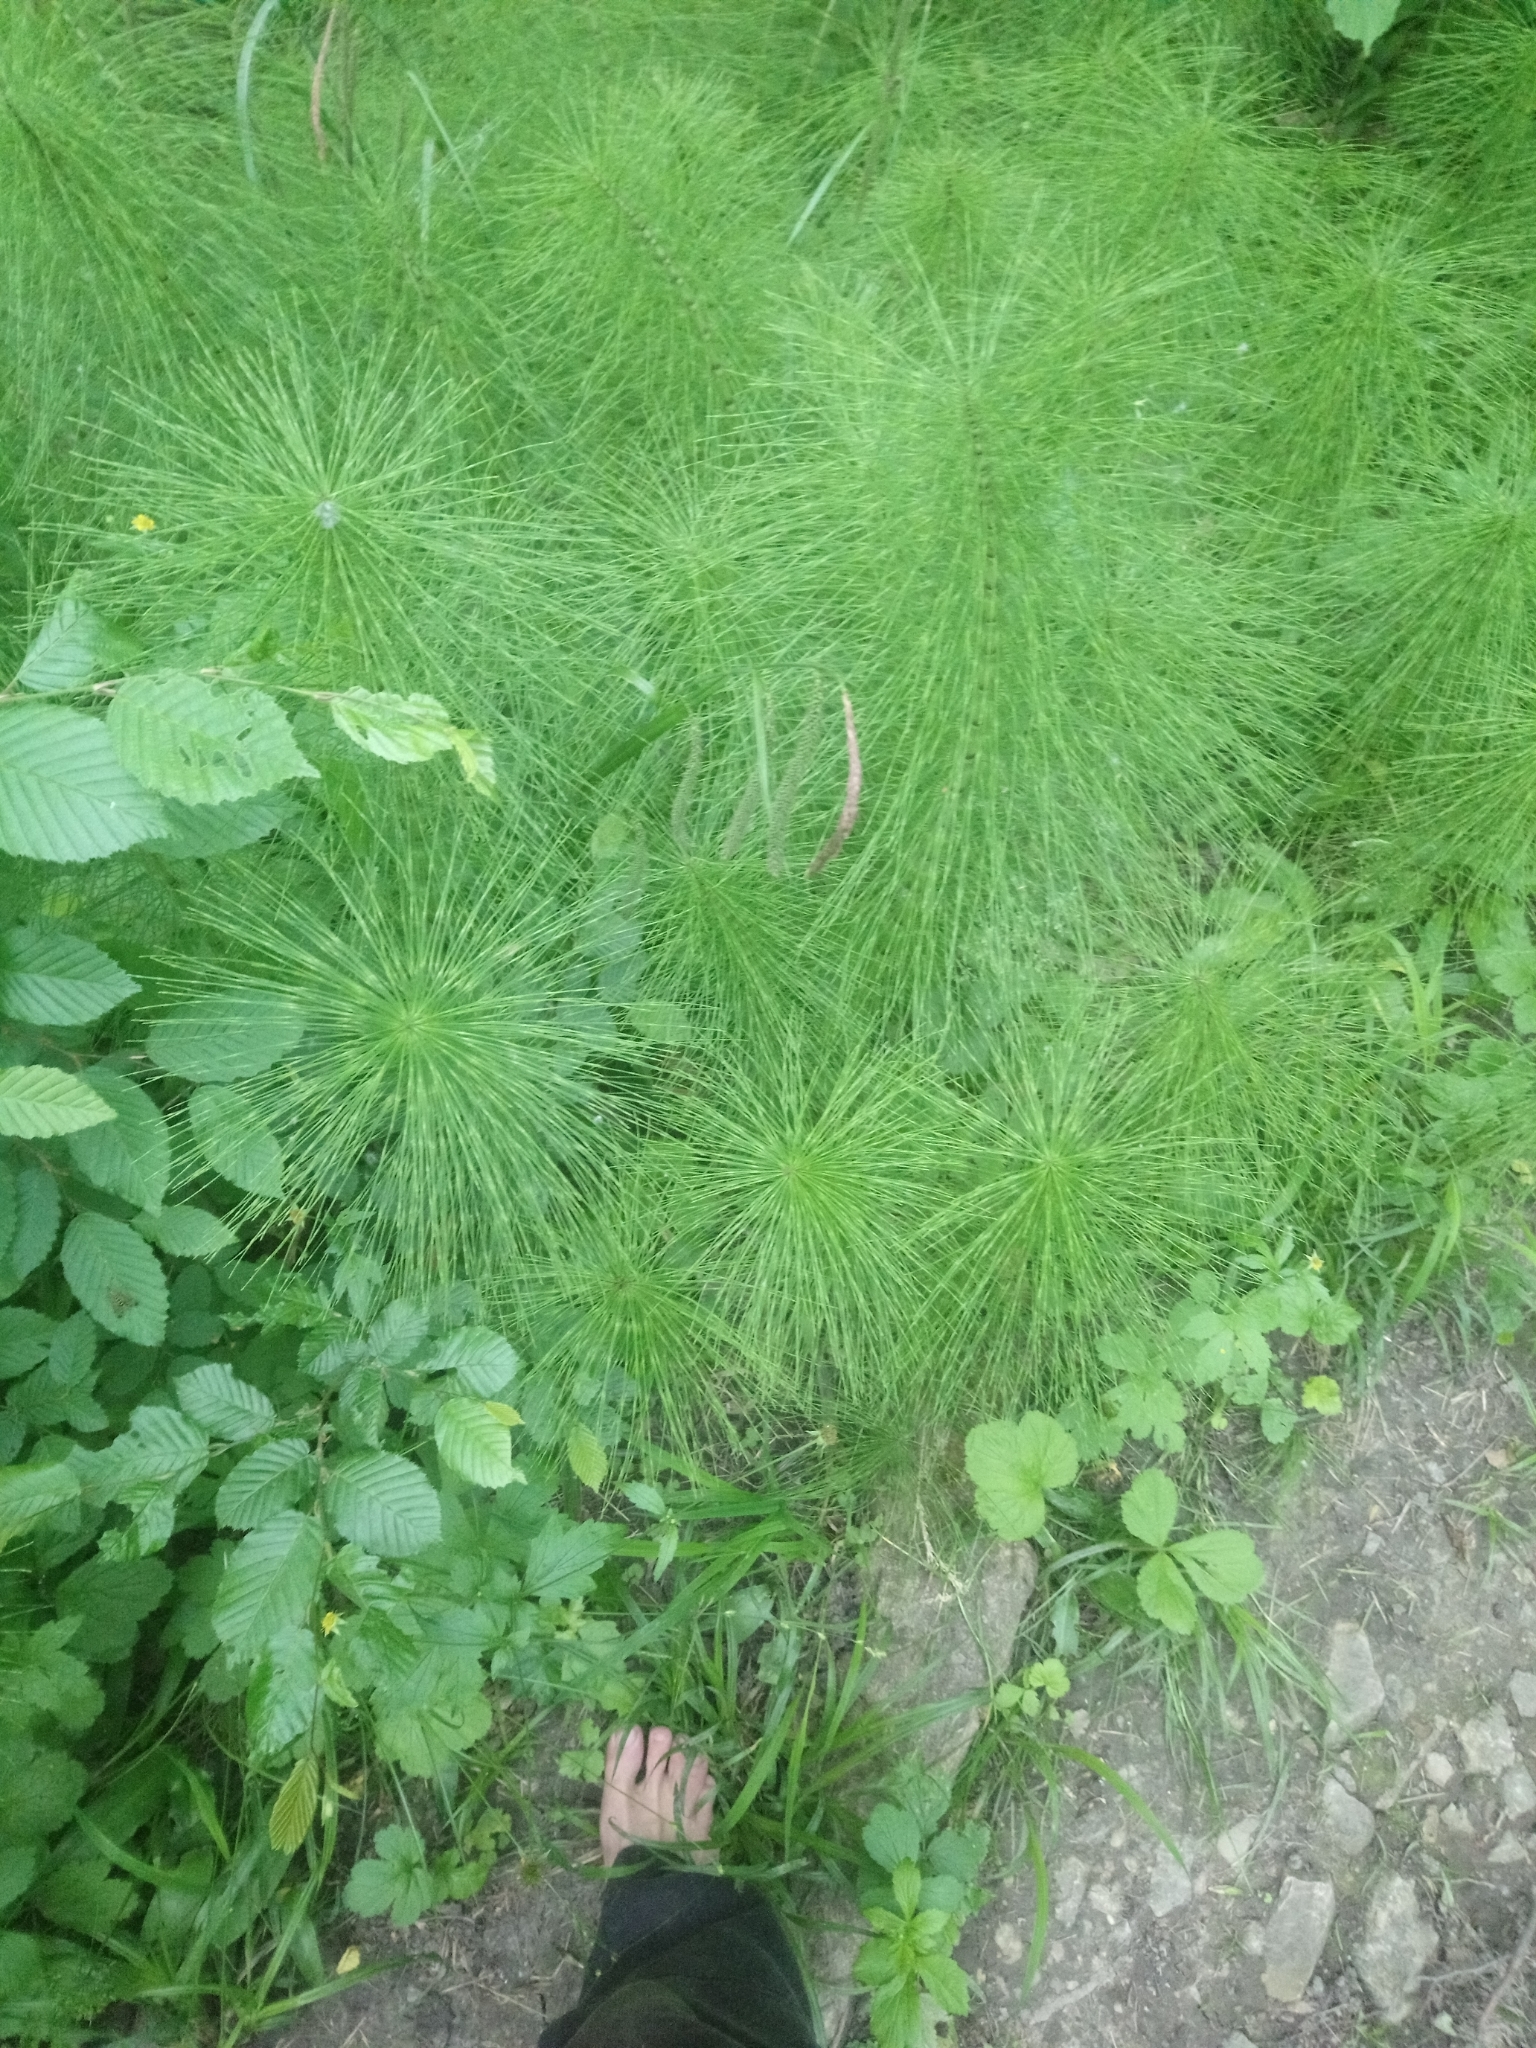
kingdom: Plantae
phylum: Tracheophyta
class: Polypodiopsida
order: Equisetales
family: Equisetaceae
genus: Equisetum
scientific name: Equisetum telmateia
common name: Great horsetail
